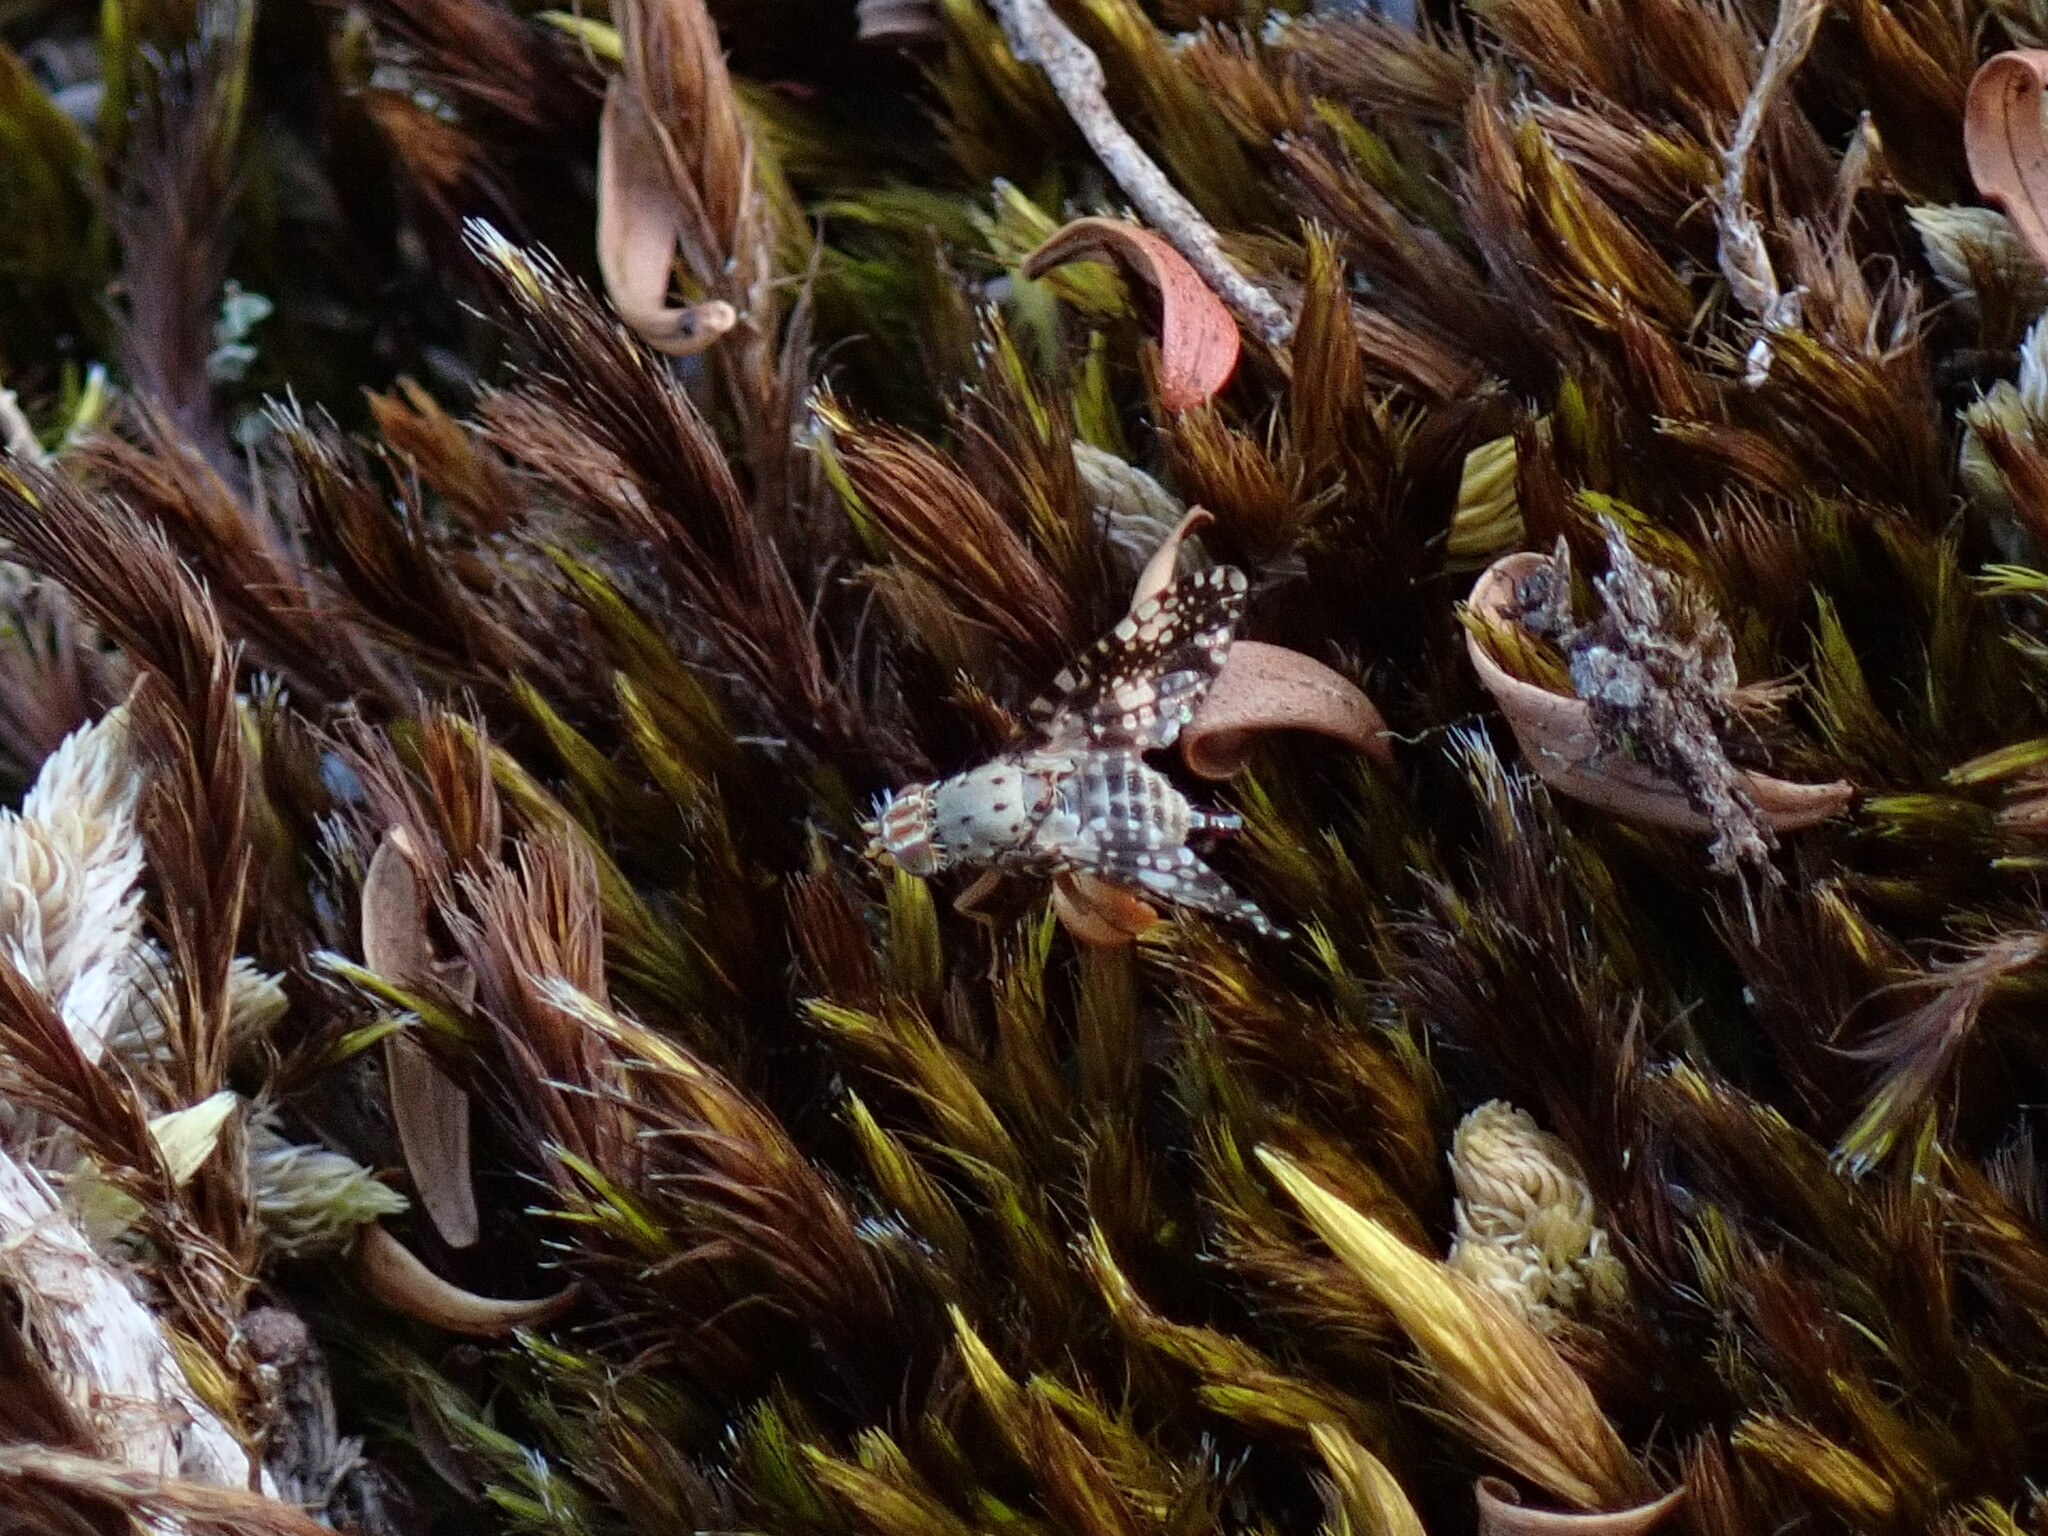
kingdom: Animalia
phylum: Arthropoda
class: Insecta
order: Diptera
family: Tephritidae
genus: Austrotephritis
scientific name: Austrotephritis
